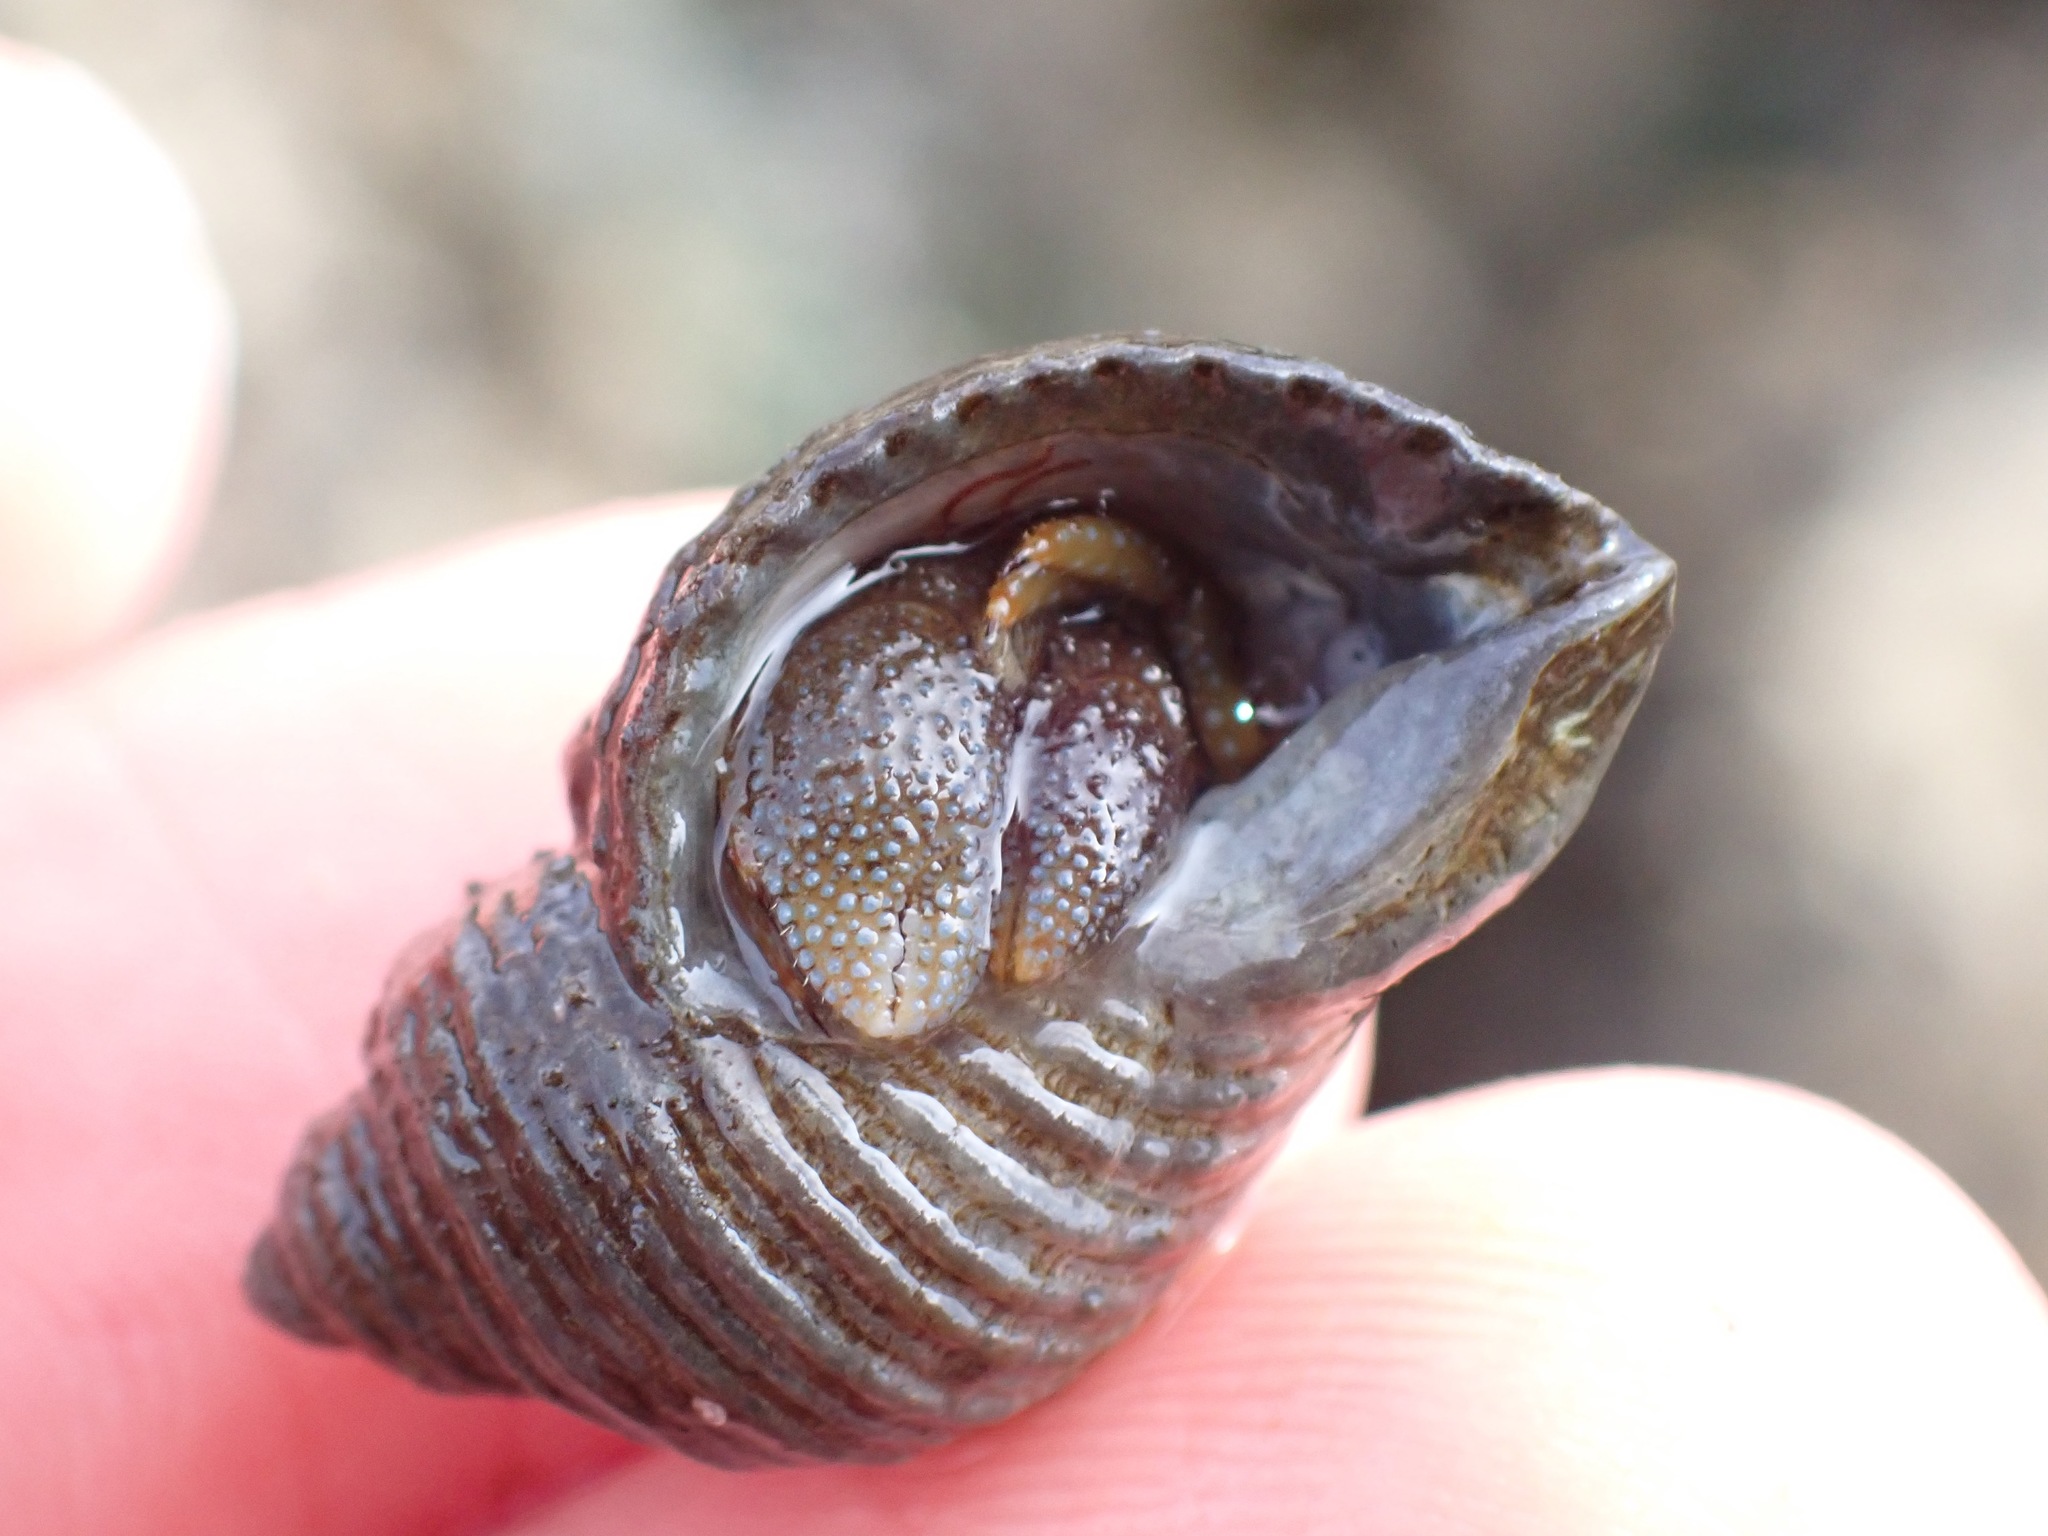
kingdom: Animalia
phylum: Mollusca
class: Gastropoda
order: Neogastropoda
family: Muricidae
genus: Nucella
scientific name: Nucella canaliculata
